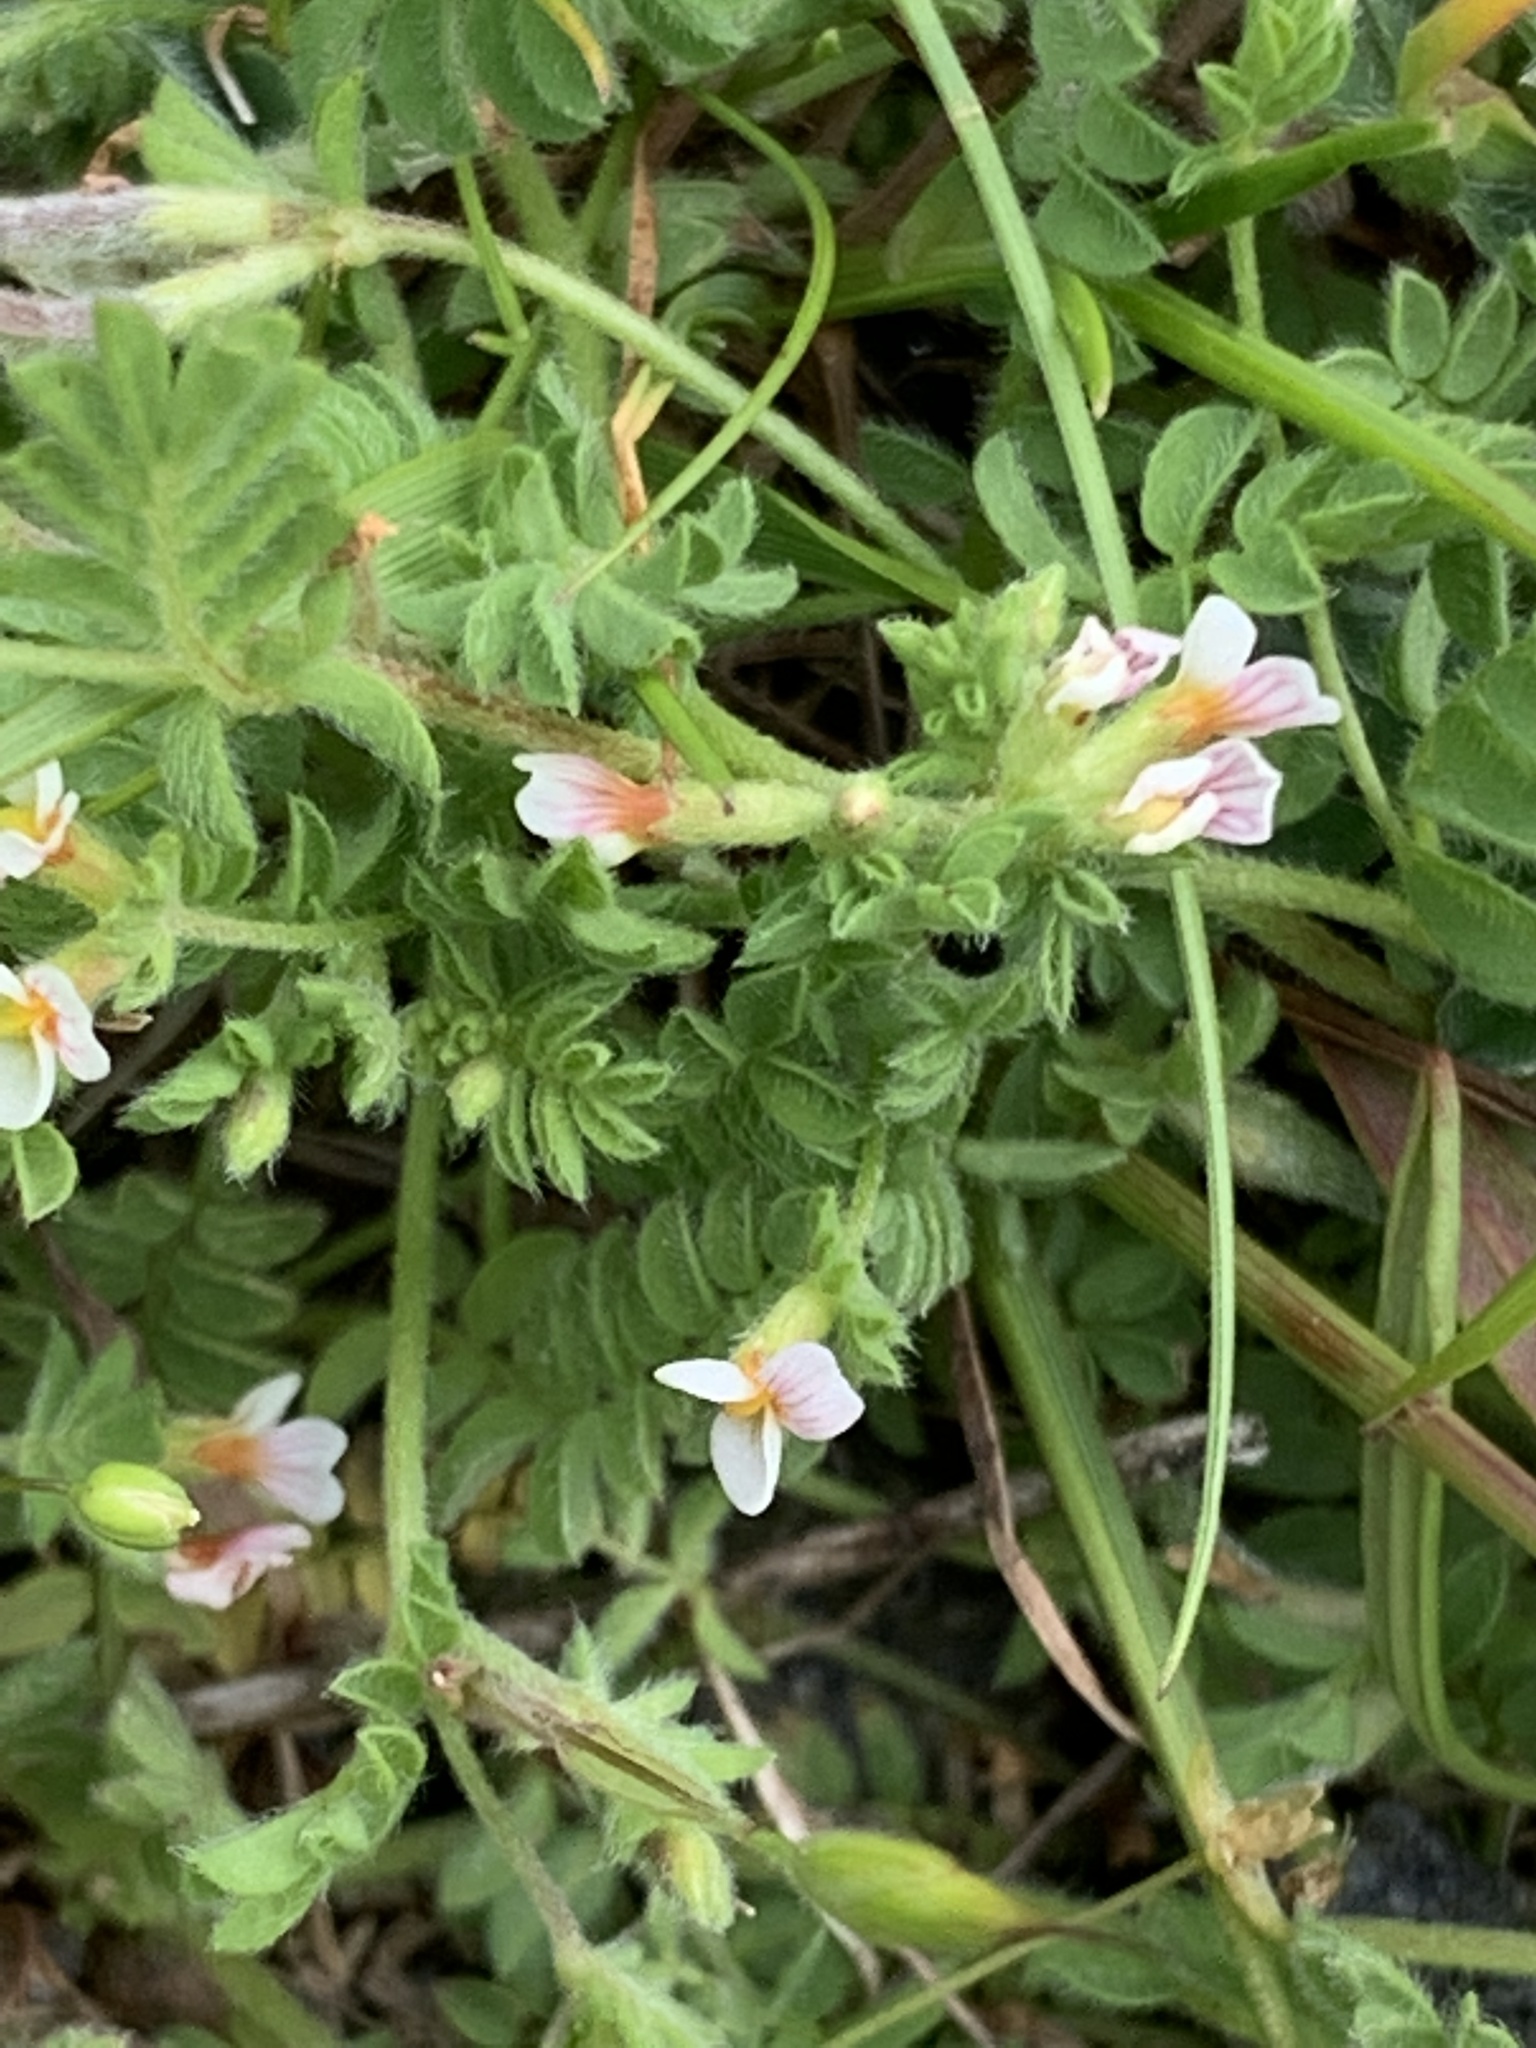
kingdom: Plantae
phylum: Tracheophyta
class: Magnoliopsida
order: Fabales
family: Fabaceae
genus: Ornithopus
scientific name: Ornithopus perpusillus
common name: Bird's-foot
